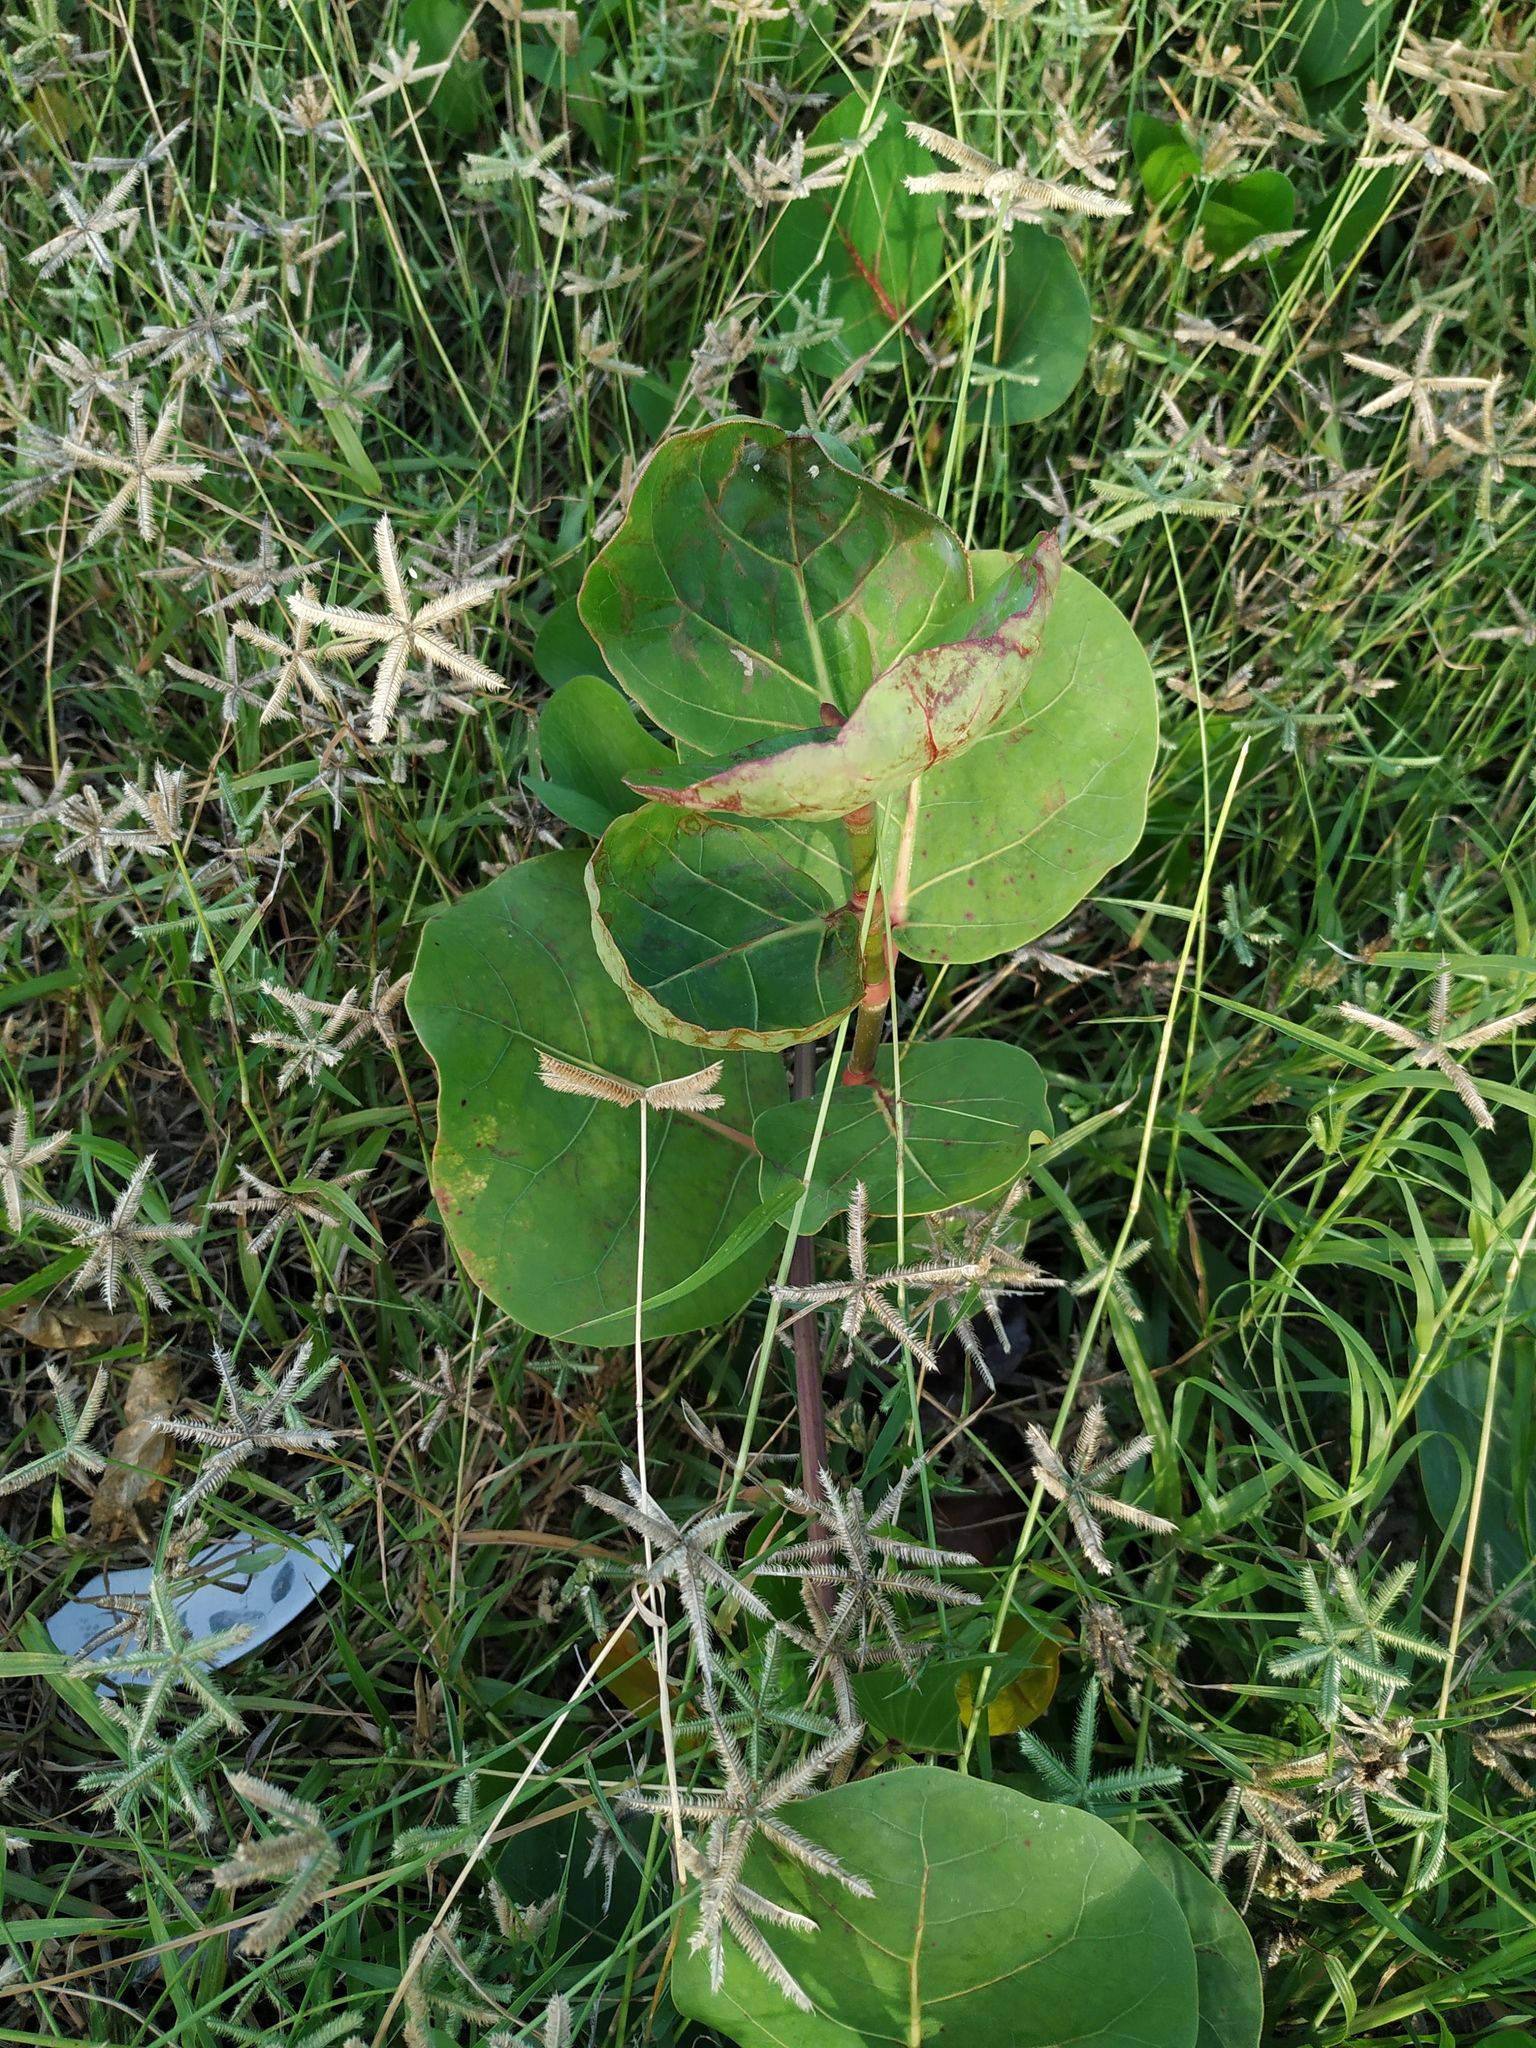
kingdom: Plantae
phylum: Tracheophyta
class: Magnoliopsida
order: Caryophyllales
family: Polygonaceae
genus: Coccoloba
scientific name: Coccoloba uvifera
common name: Seagrape
